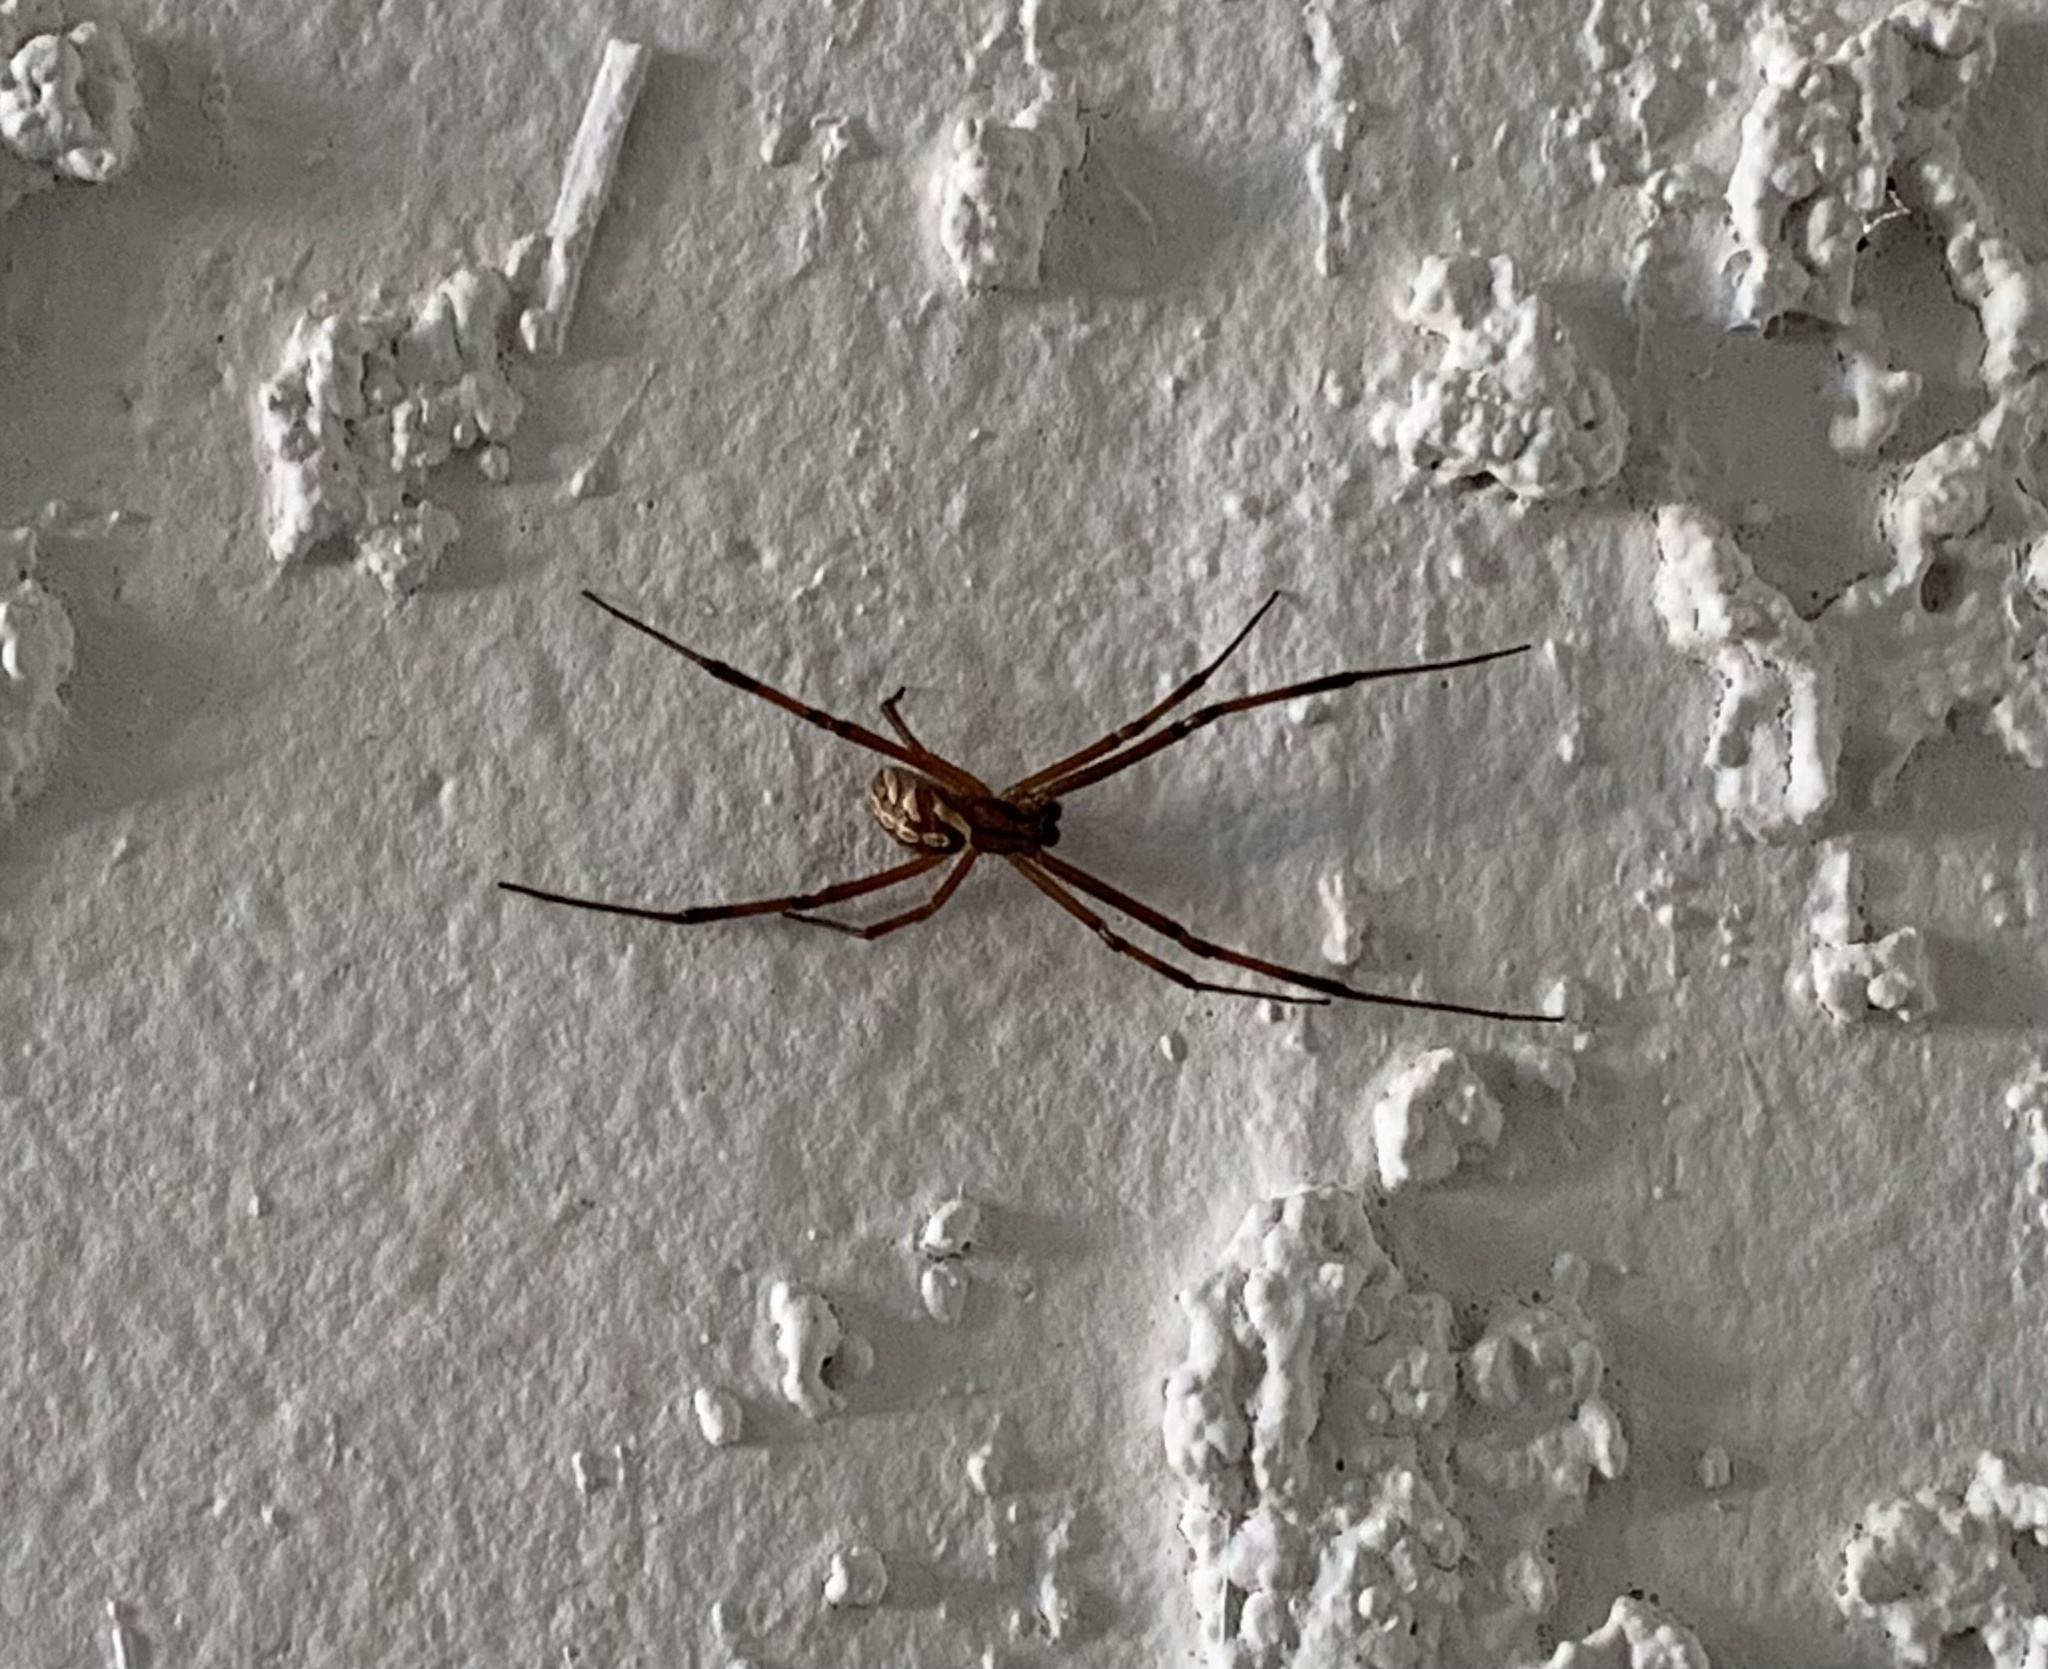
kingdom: Animalia
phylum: Arthropoda
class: Arachnida
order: Araneae
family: Theridiidae
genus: Latrodectus
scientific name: Latrodectus hesperus
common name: Western black widow
